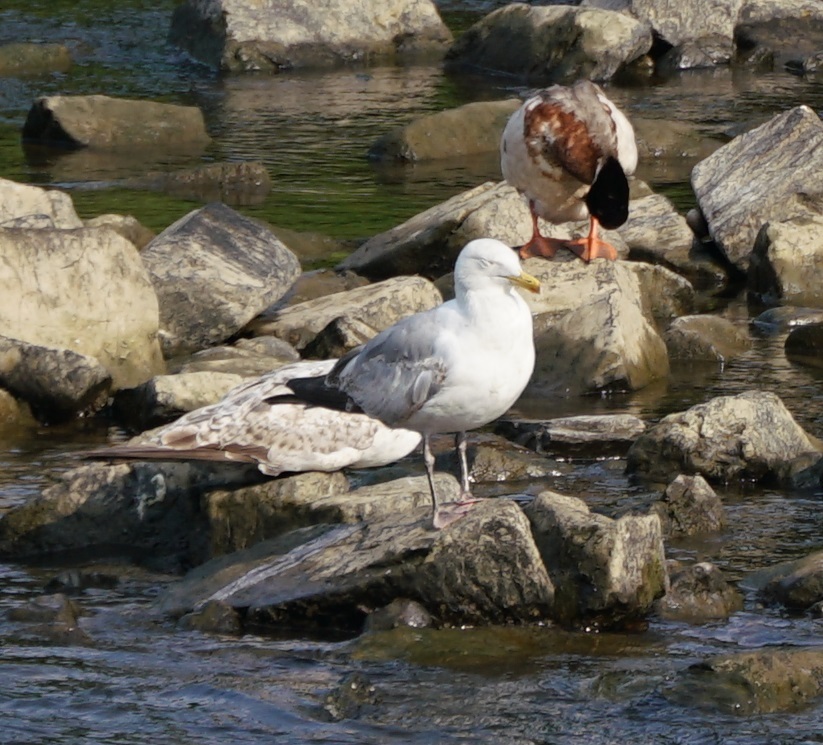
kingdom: Animalia
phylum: Chordata
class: Aves
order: Charadriiformes
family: Laridae
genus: Larus
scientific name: Larus argentatus
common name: Herring gull
